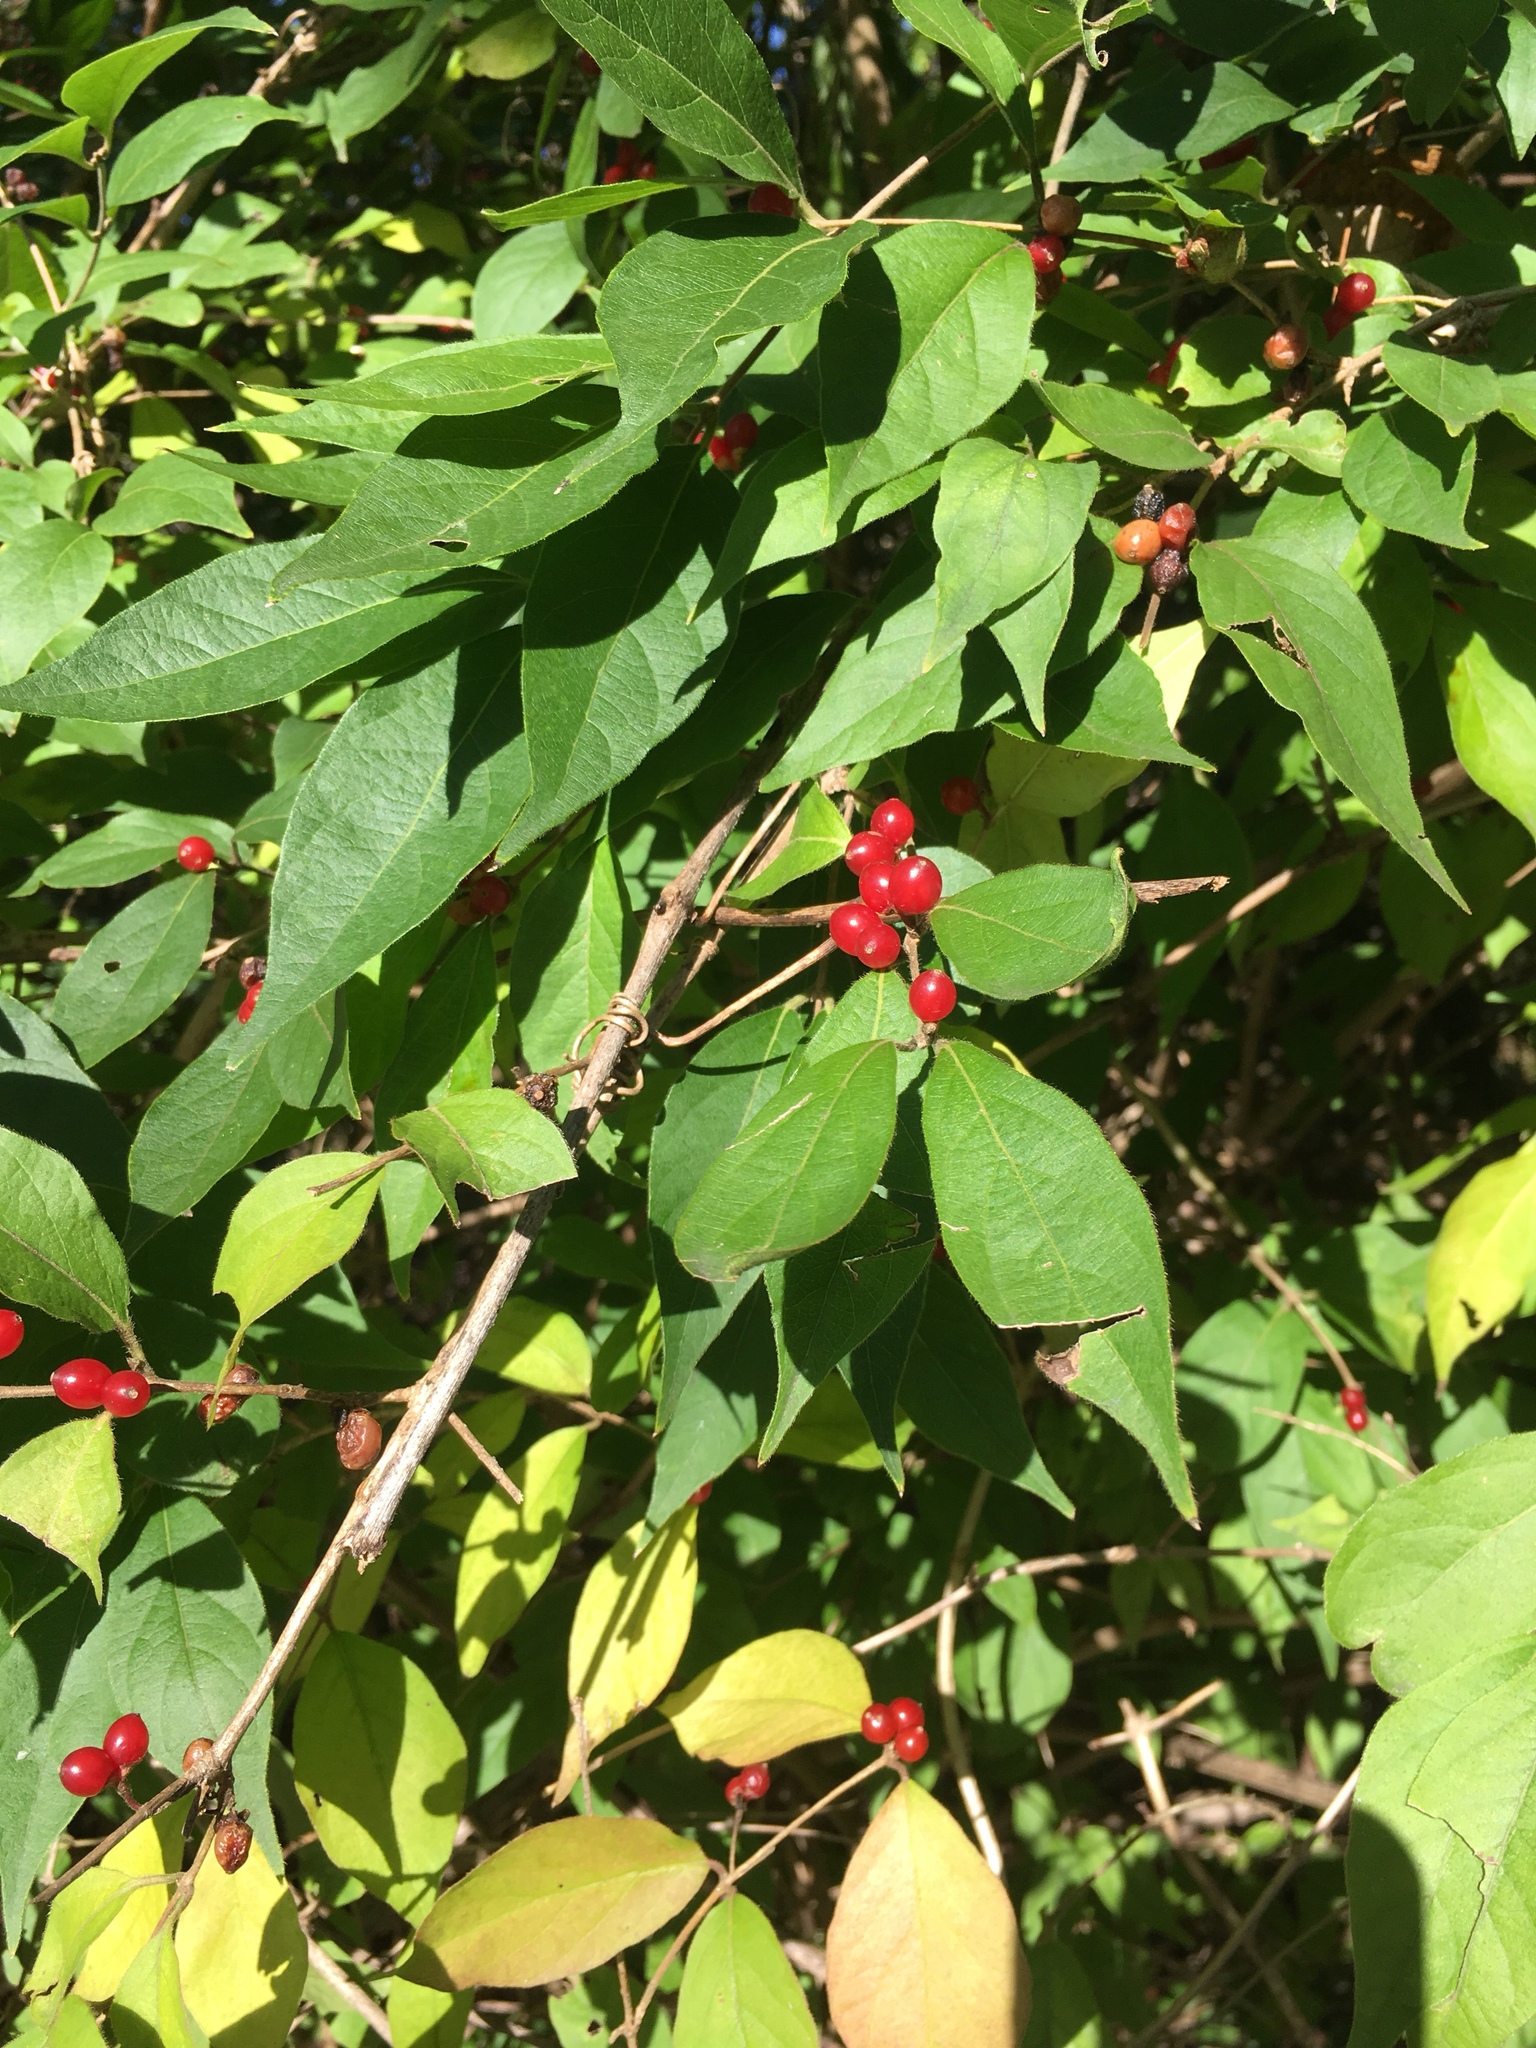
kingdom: Plantae
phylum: Tracheophyta
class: Magnoliopsida
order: Dipsacales
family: Caprifoliaceae
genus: Lonicera
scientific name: Lonicera maackii
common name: Amur honeysuckle
